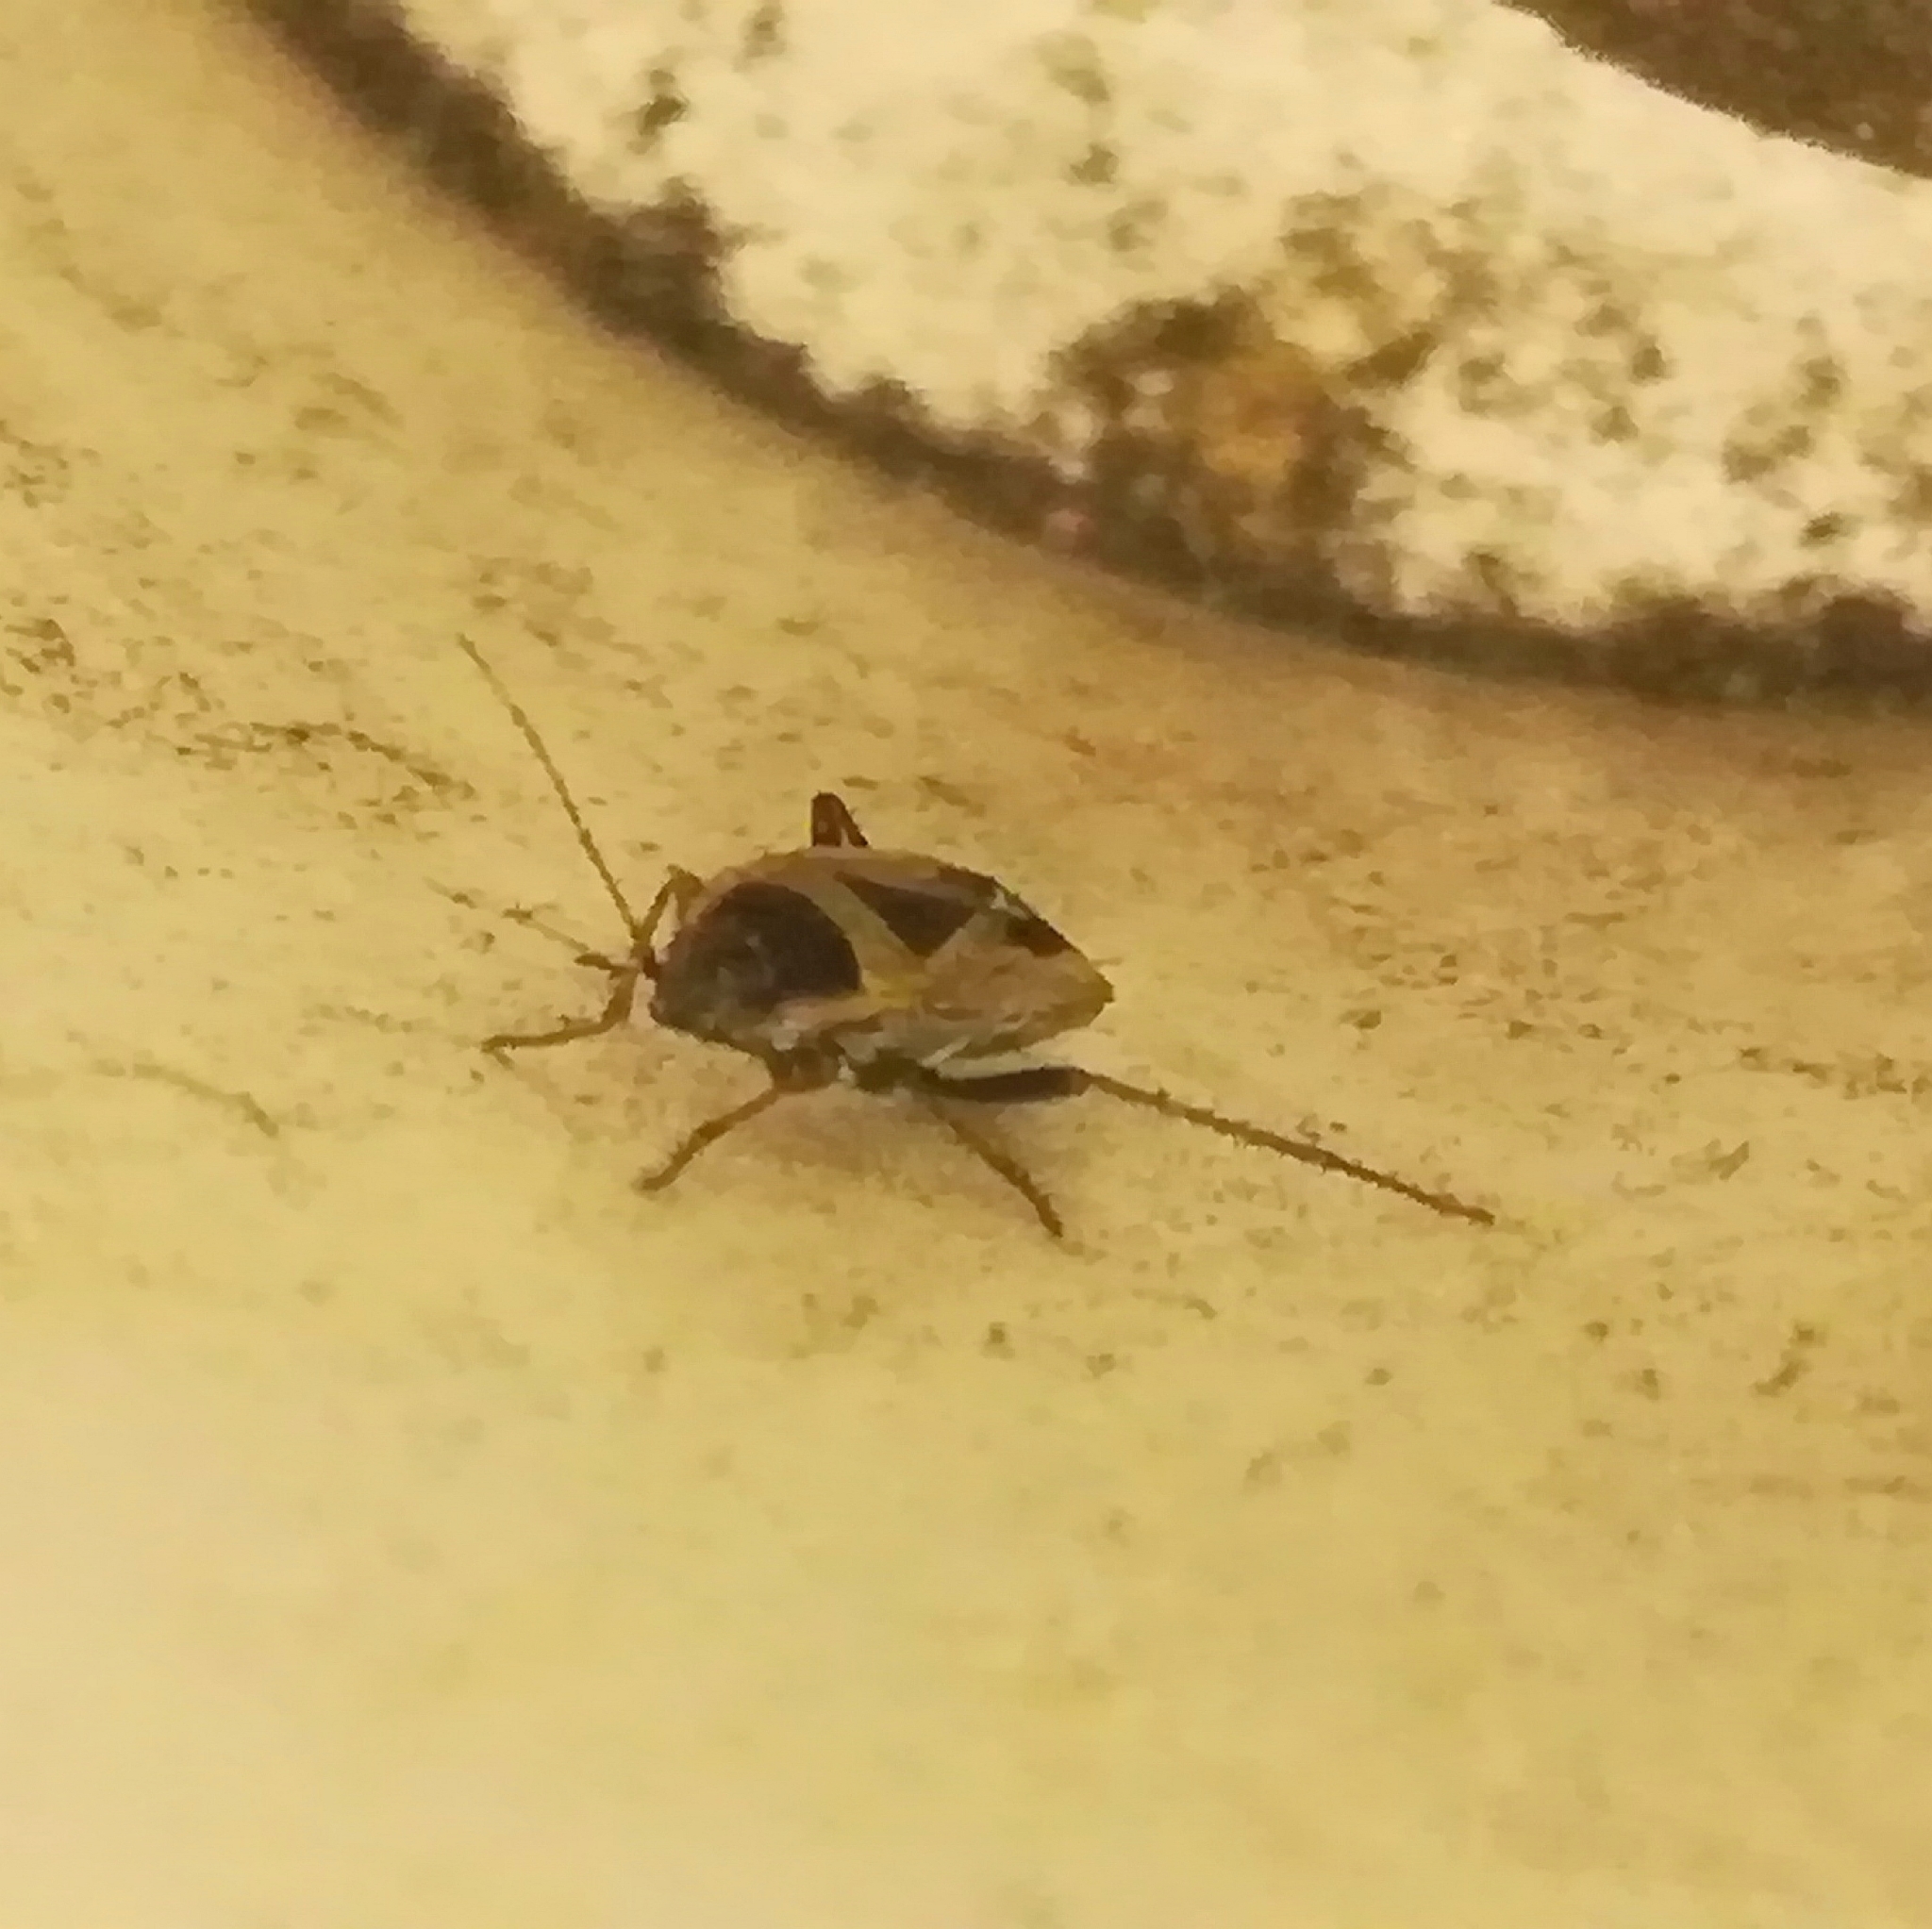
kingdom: Animalia
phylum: Arthropoda
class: Insecta
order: Hemiptera
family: Rhyparochromidae
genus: Xanthochilus
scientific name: Xanthochilus saturnius
